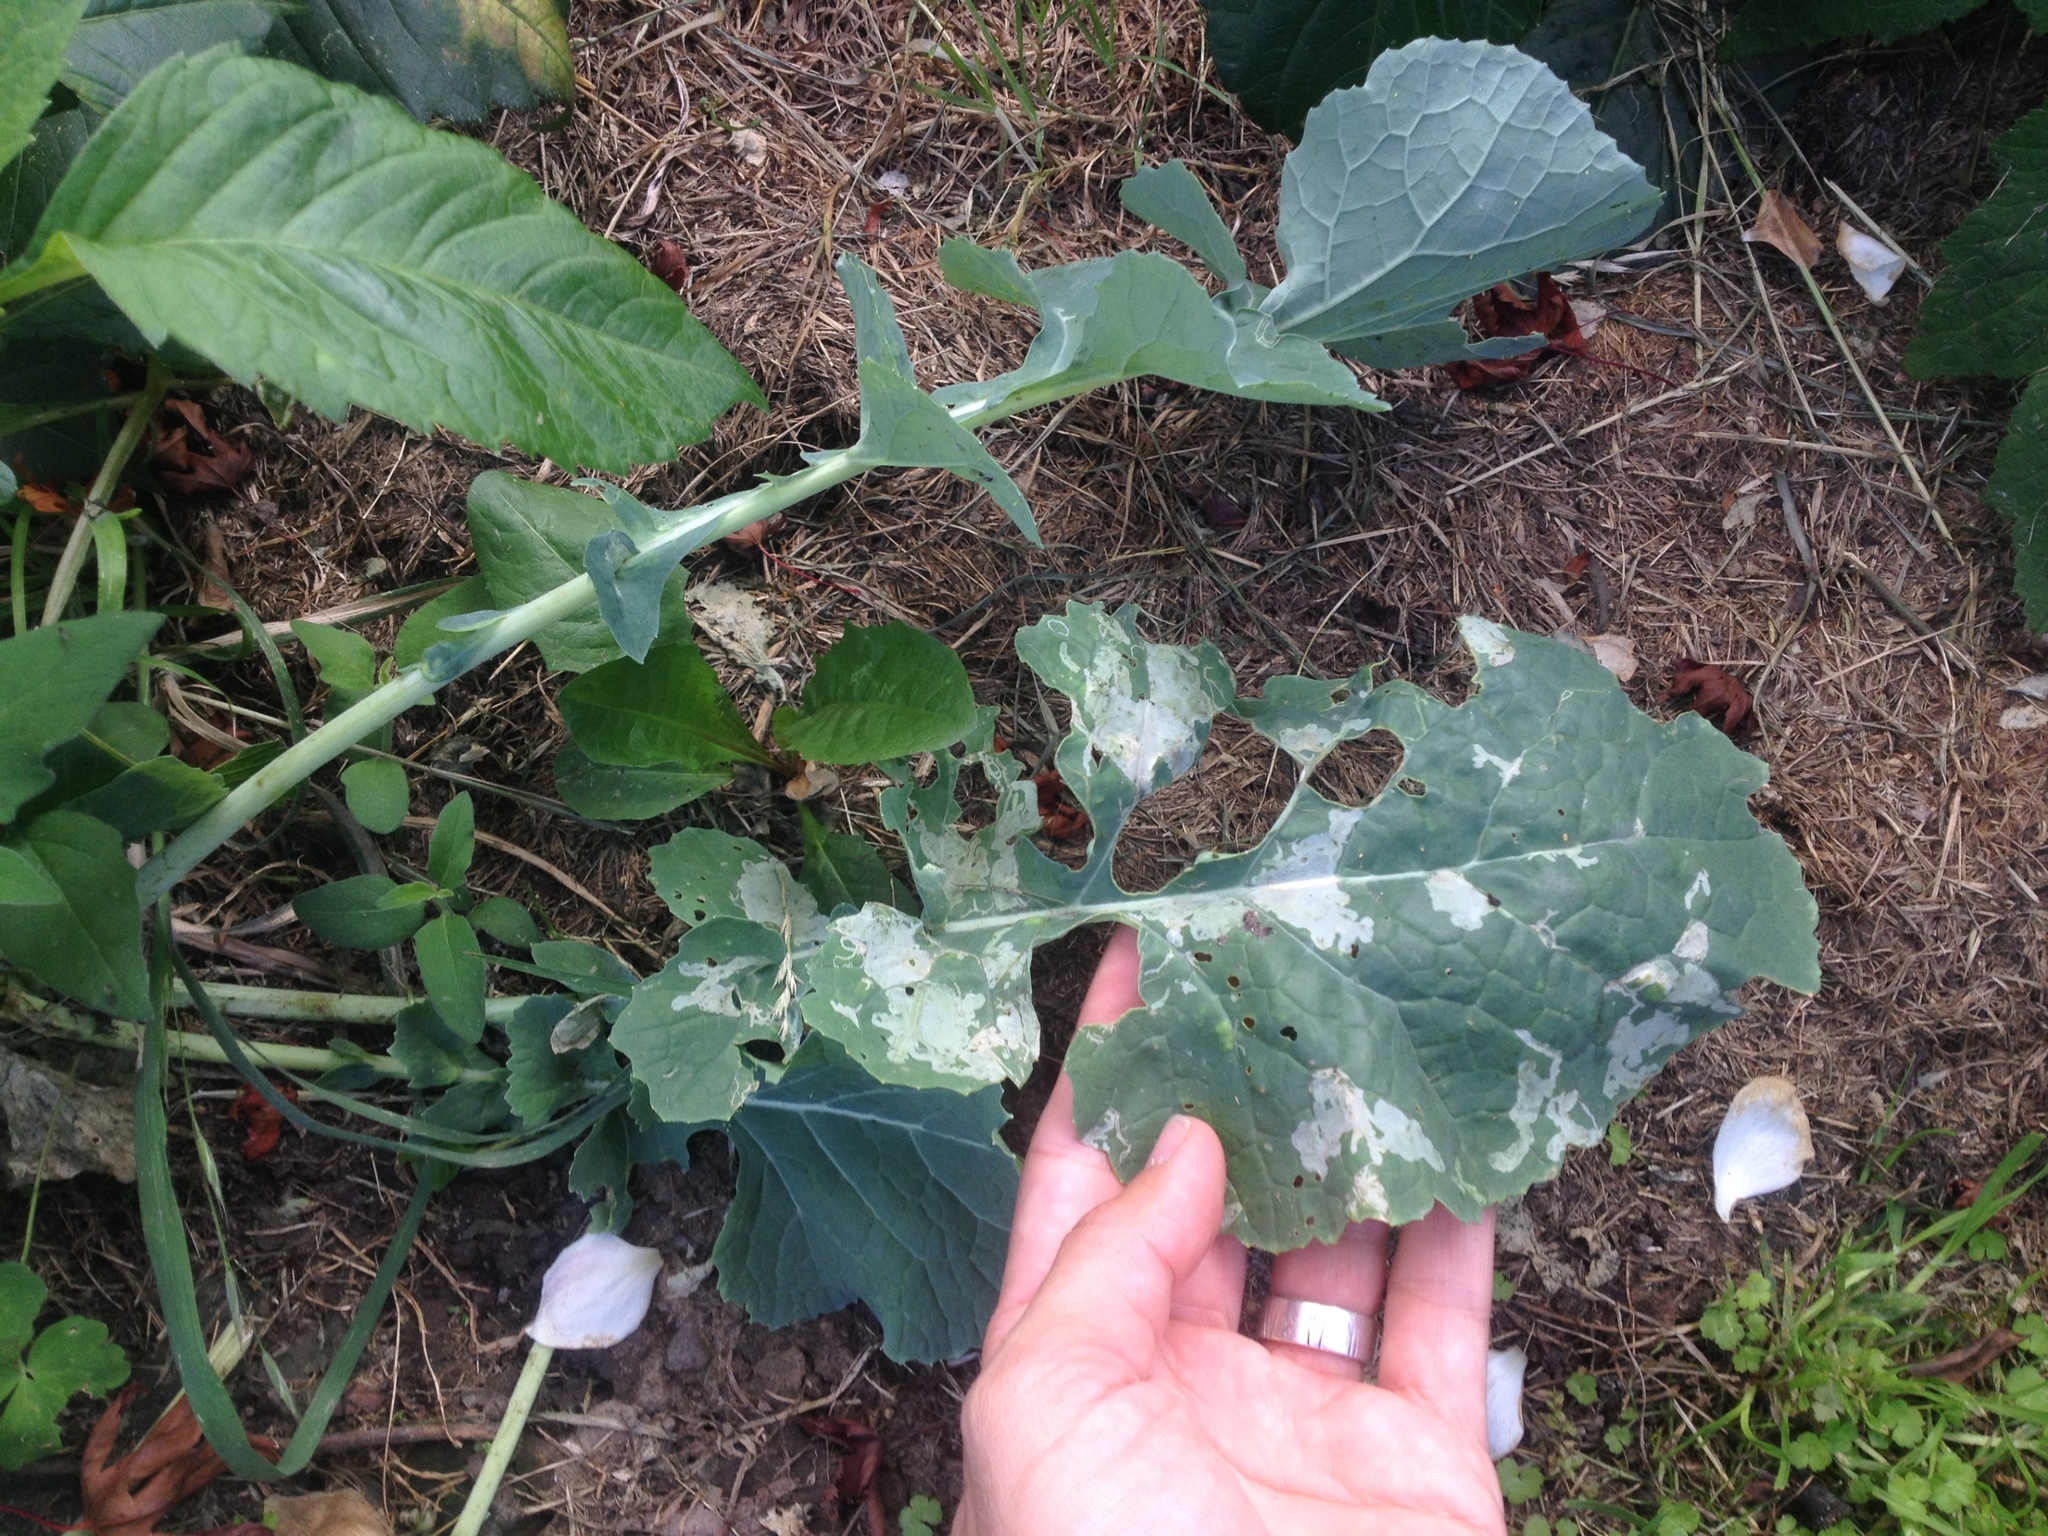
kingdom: Plantae
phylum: Tracheophyta
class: Magnoliopsida
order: Brassicales
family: Brassicaceae
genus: Brassica
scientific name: Brassica oleracea
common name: Cabbage
